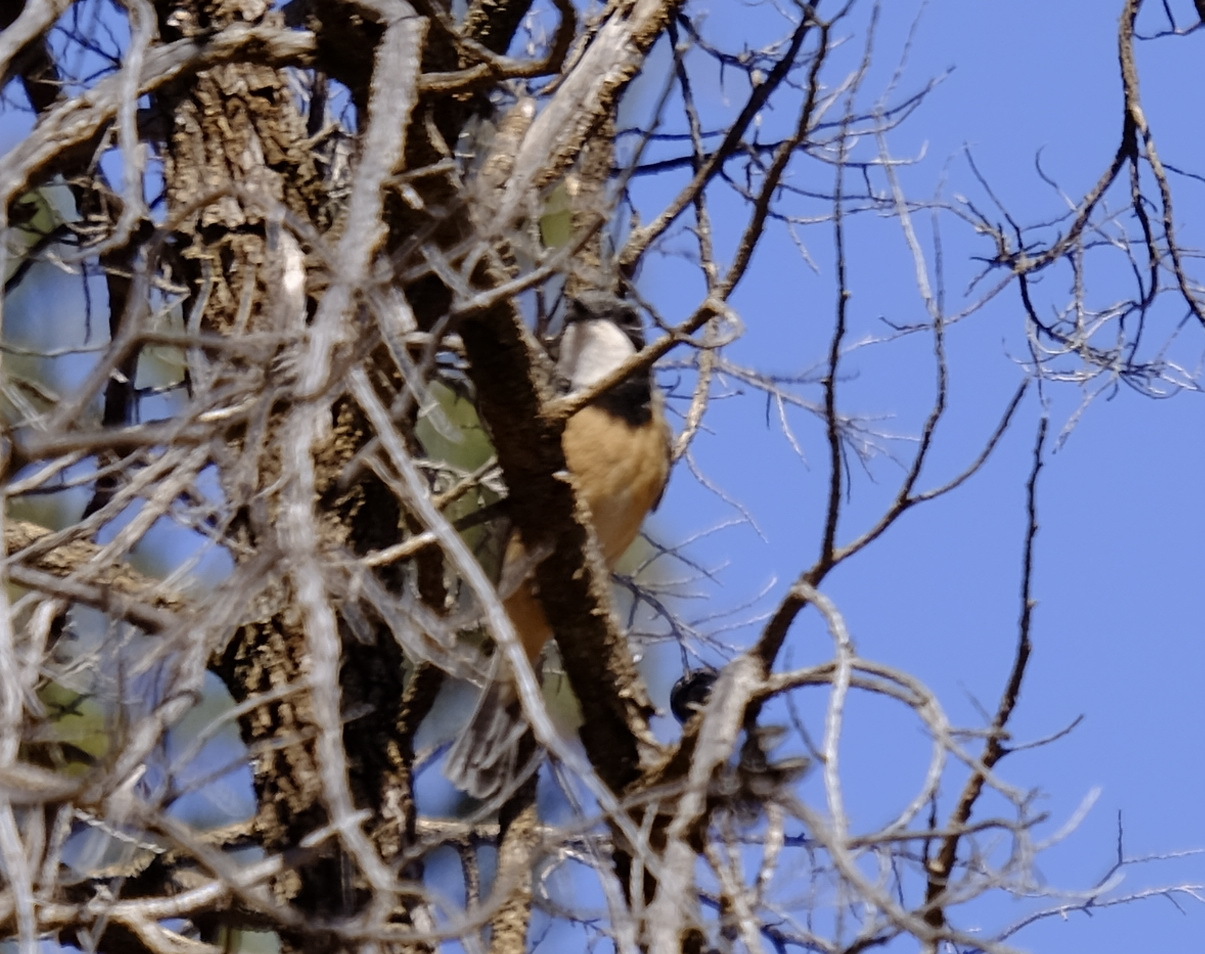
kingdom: Animalia
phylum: Chordata
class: Aves
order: Passeriformes
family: Pachycephalidae
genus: Pachycephala
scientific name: Pachycephala rufiventris
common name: Rufous whistler
